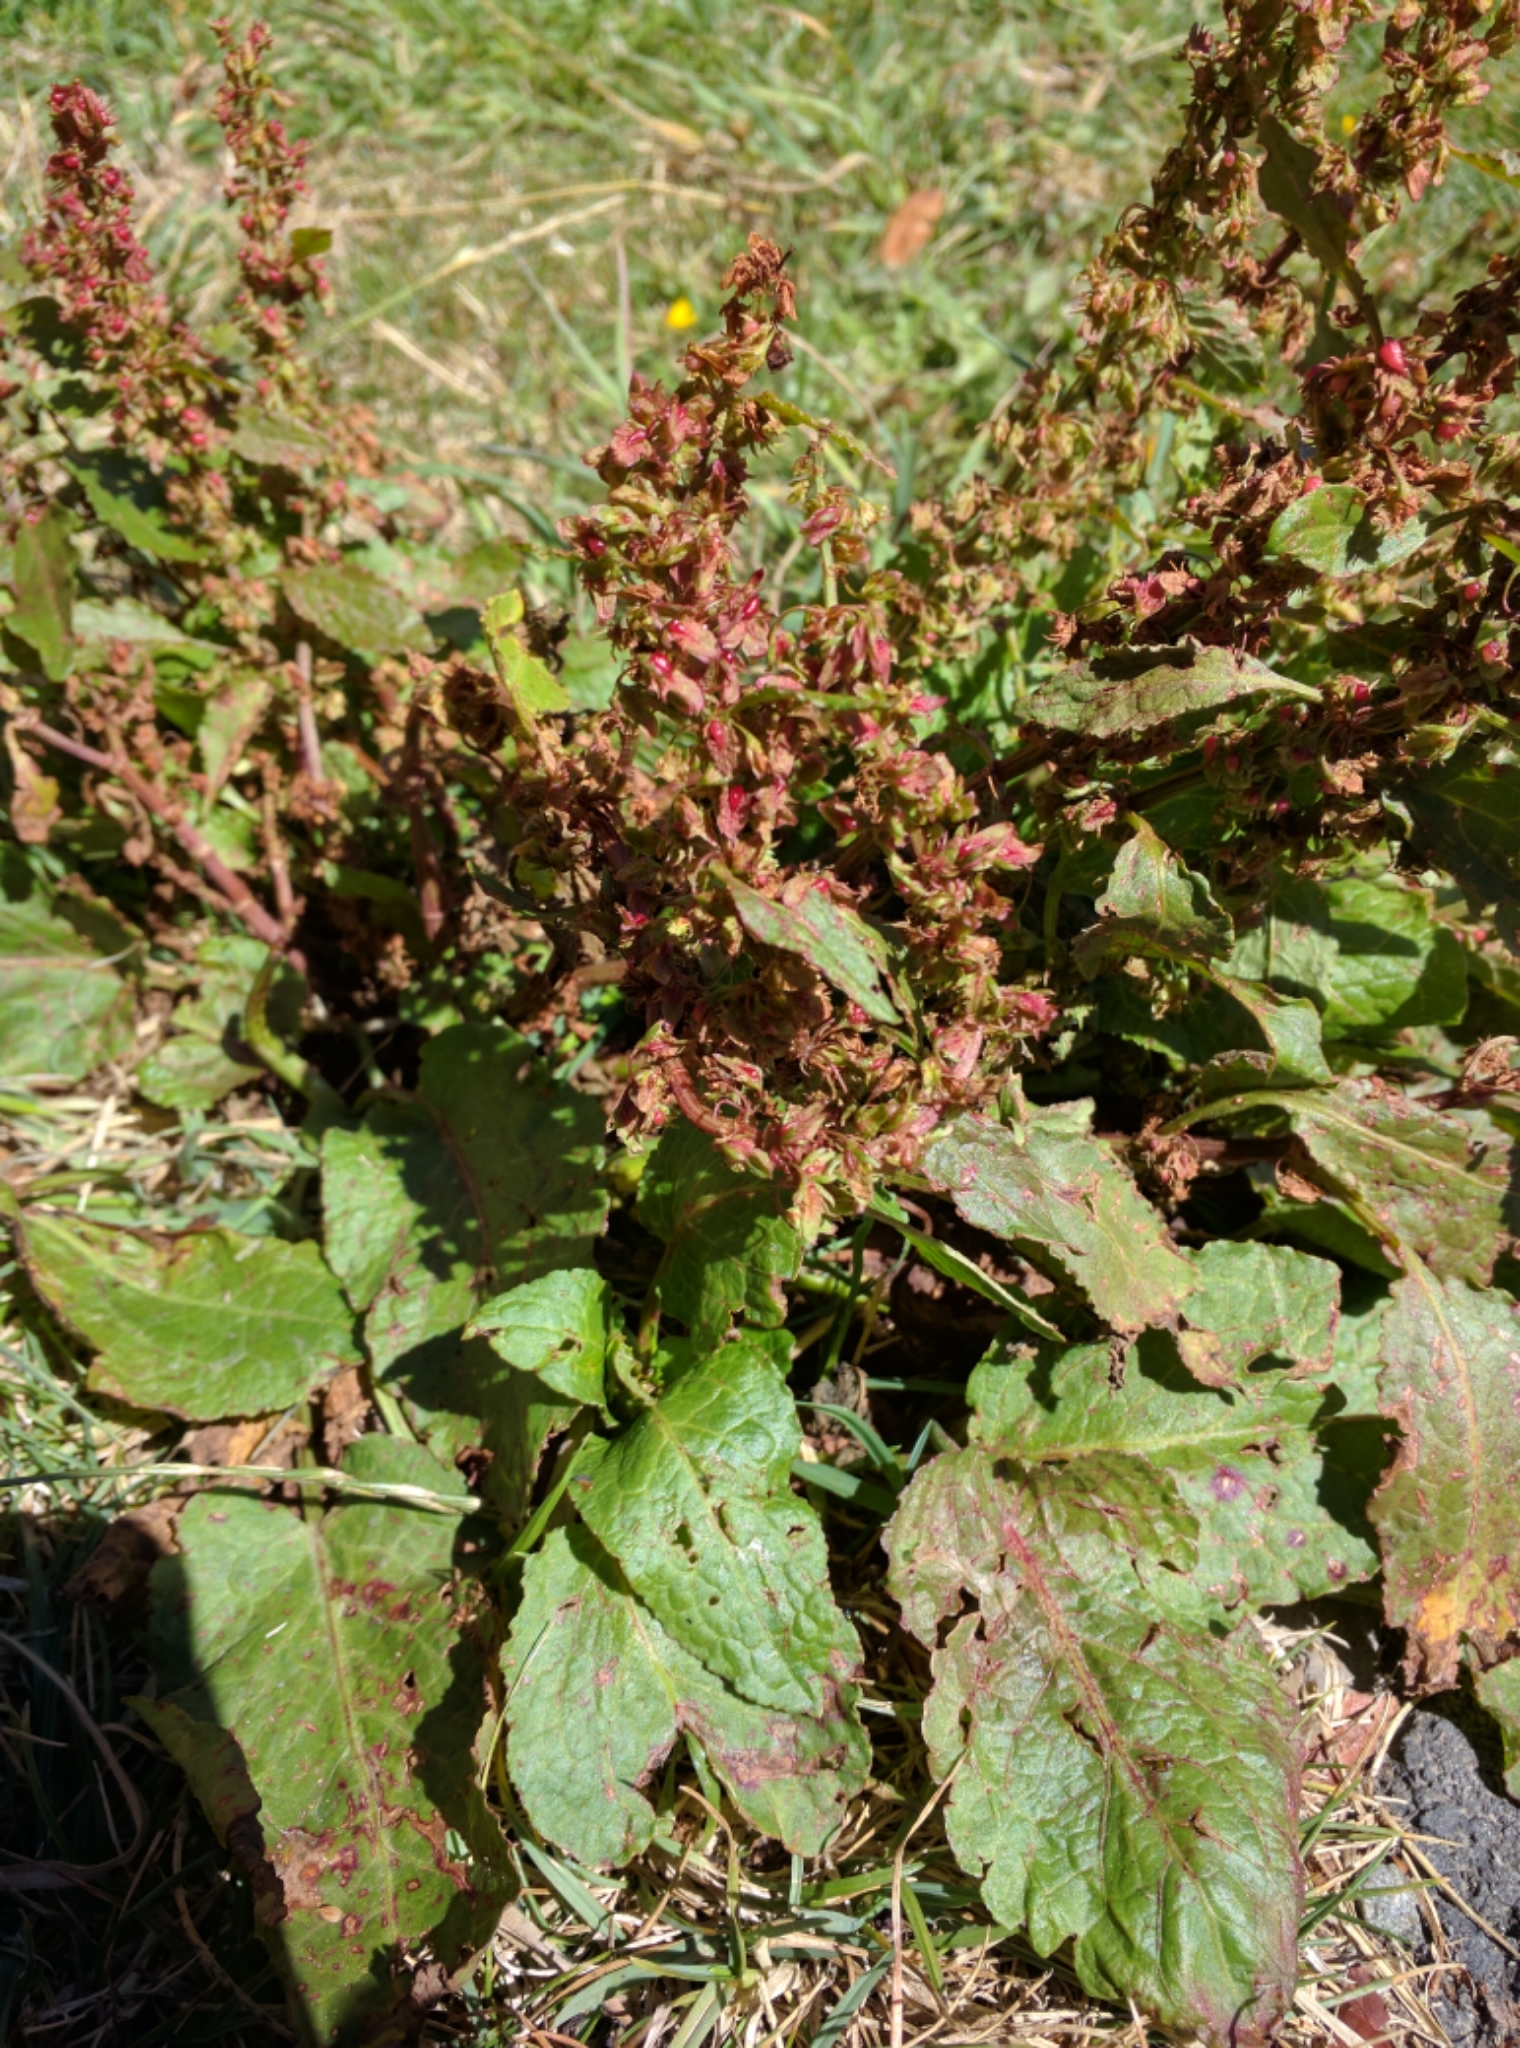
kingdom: Plantae
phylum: Tracheophyta
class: Magnoliopsida
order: Caryophyllales
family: Polygonaceae
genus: Rumex
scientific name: Rumex obtusifolius
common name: Bitter dock
